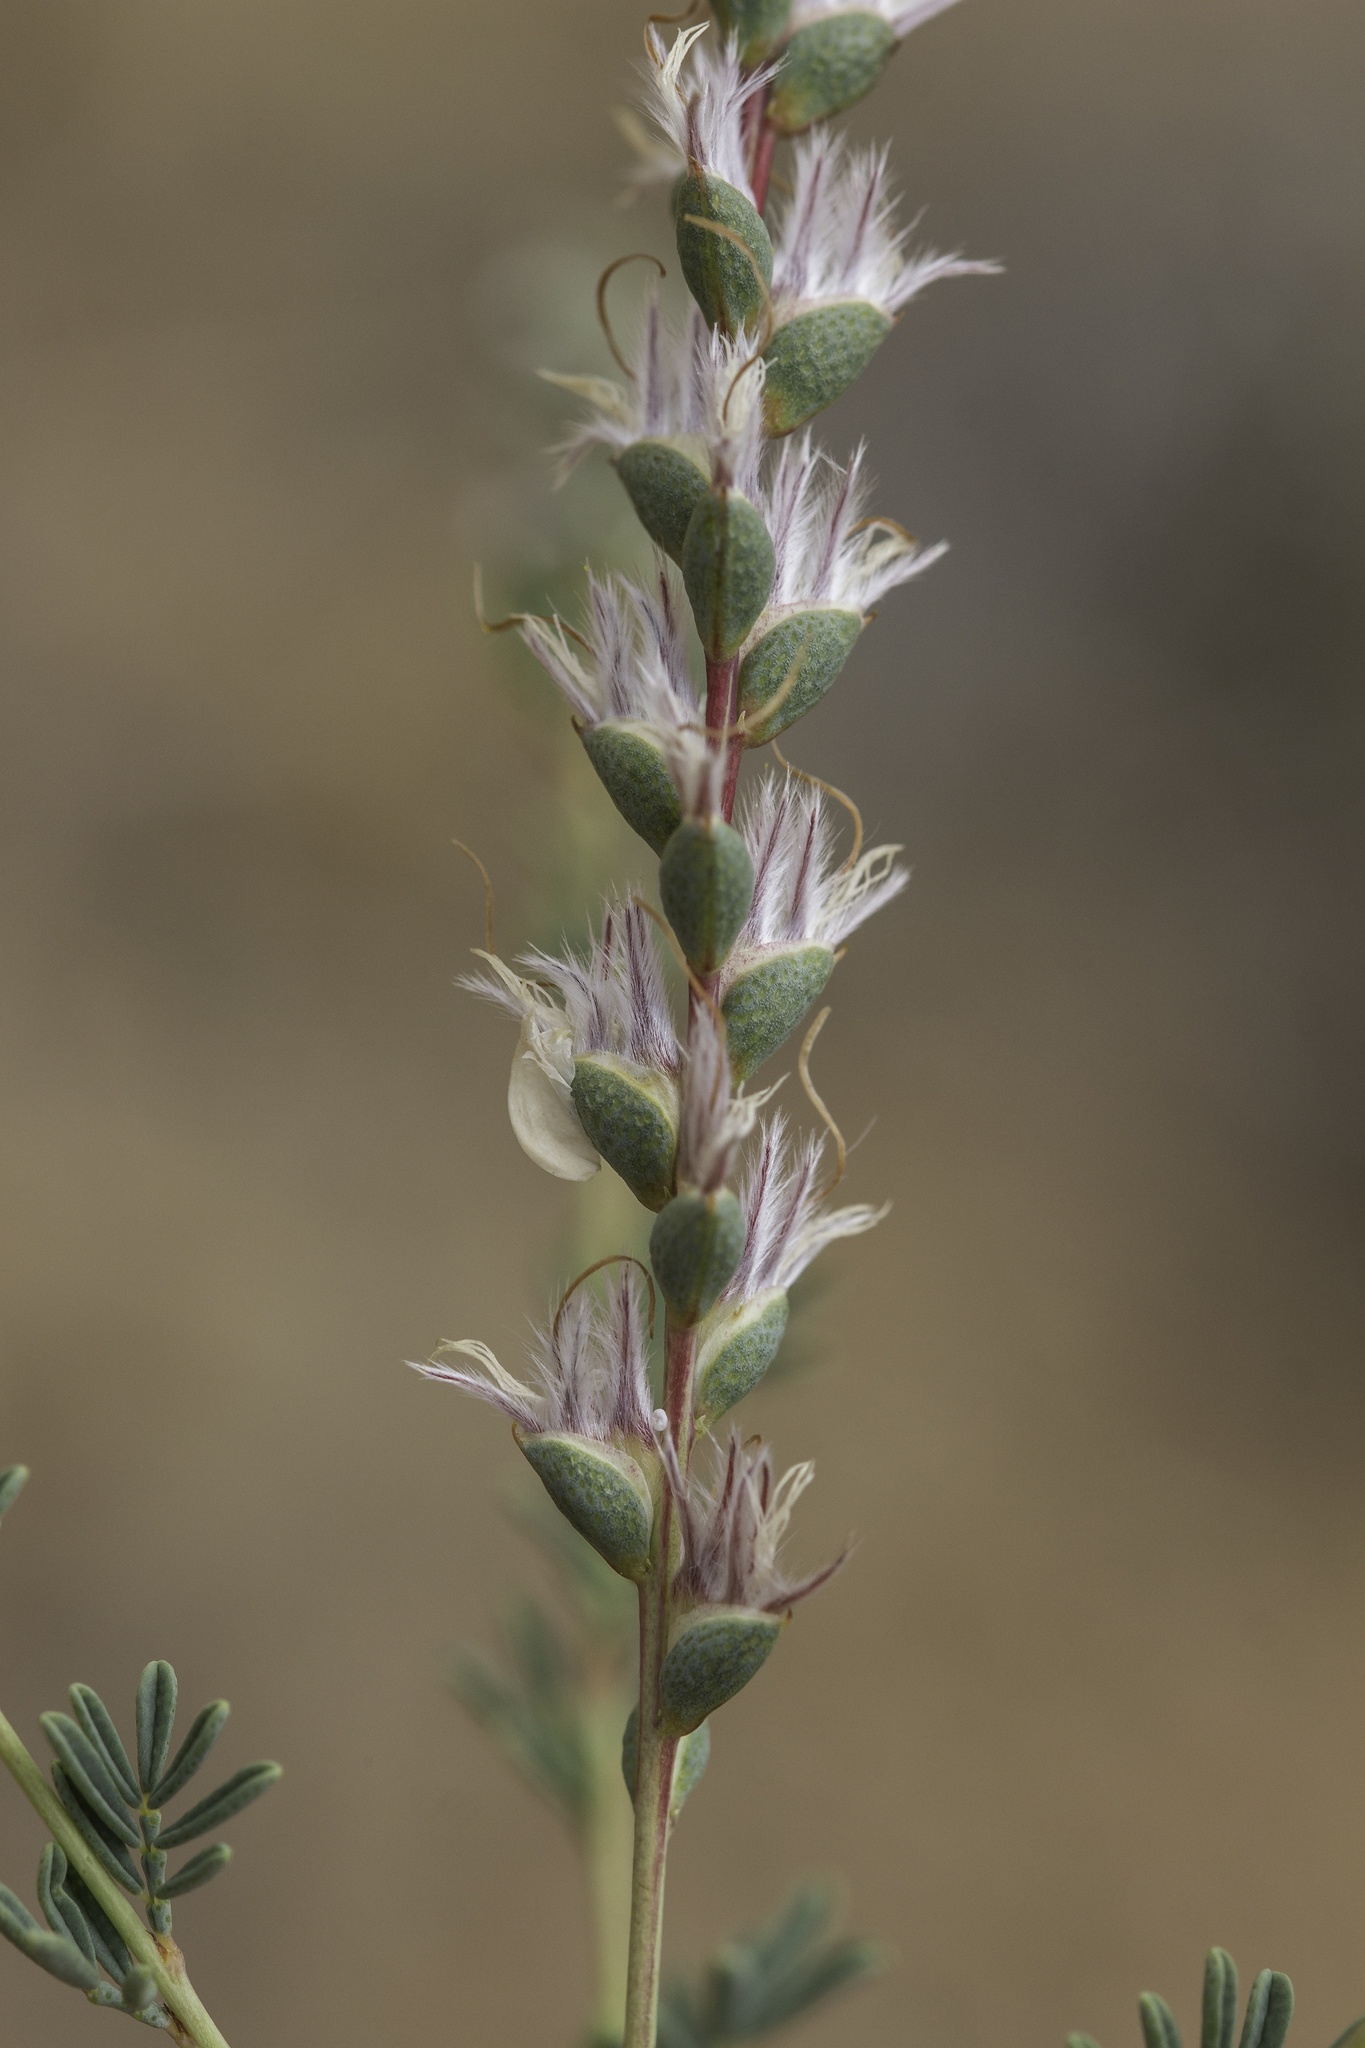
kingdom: Plantae
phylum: Tracheophyta
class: Magnoliopsida
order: Fabales
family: Fabaceae
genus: Dalea
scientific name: Dalea enneandra
